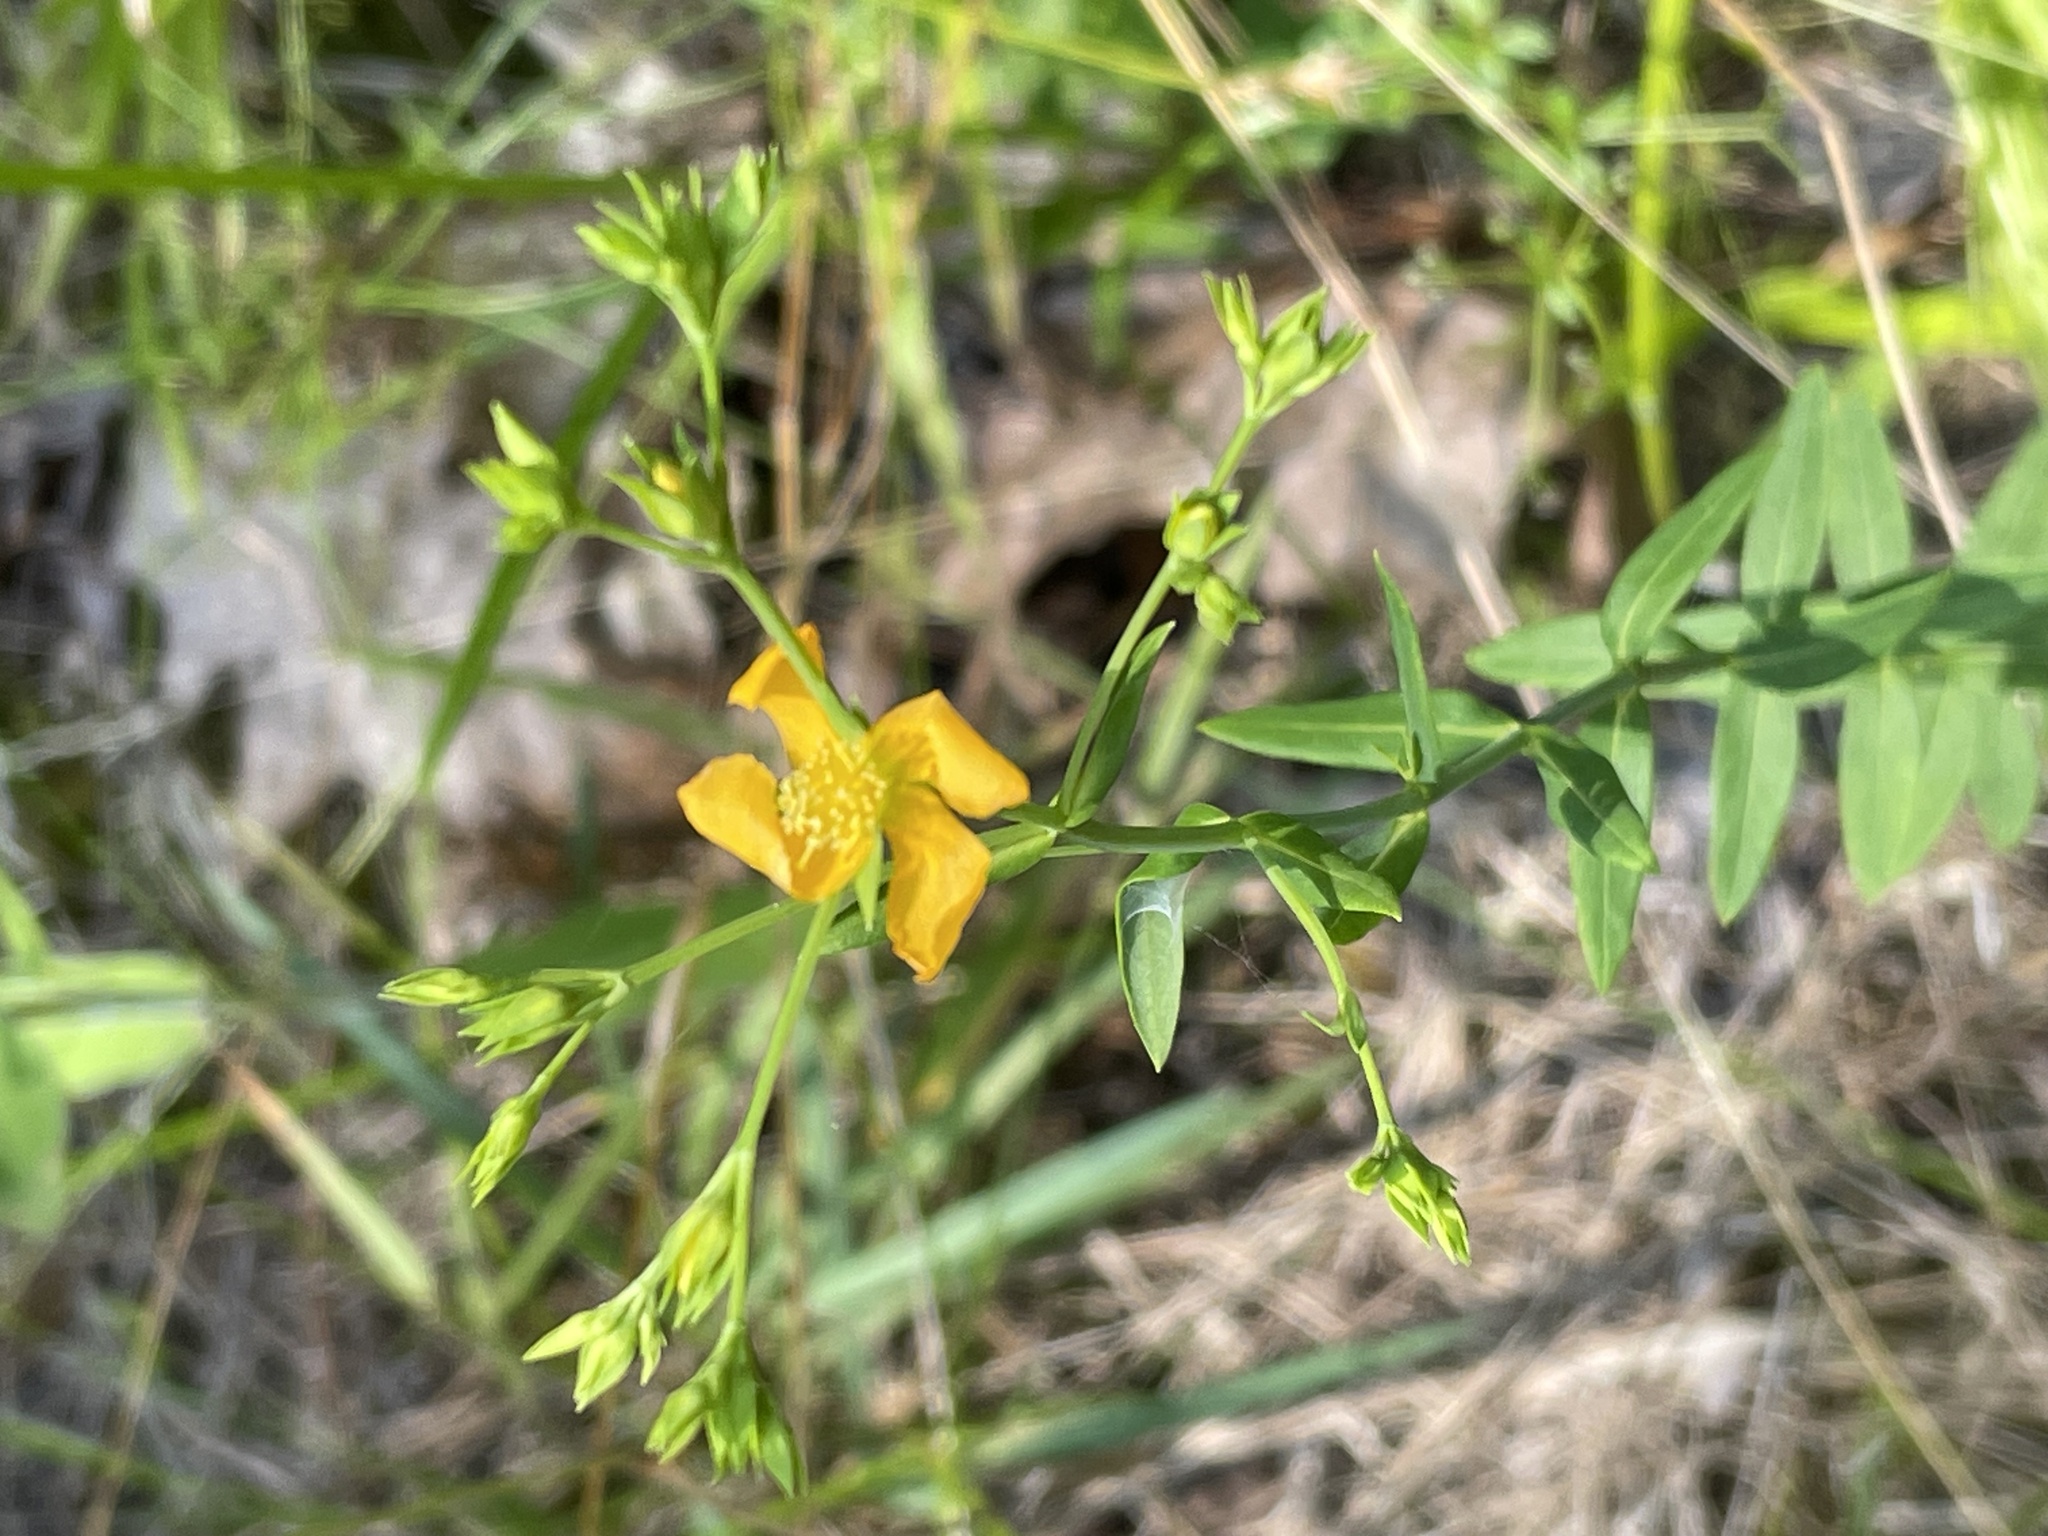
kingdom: Plantae
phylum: Tracheophyta
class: Magnoliopsida
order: Malpighiales
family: Hypericaceae
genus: Hypericum
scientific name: Hypericum virgatum
